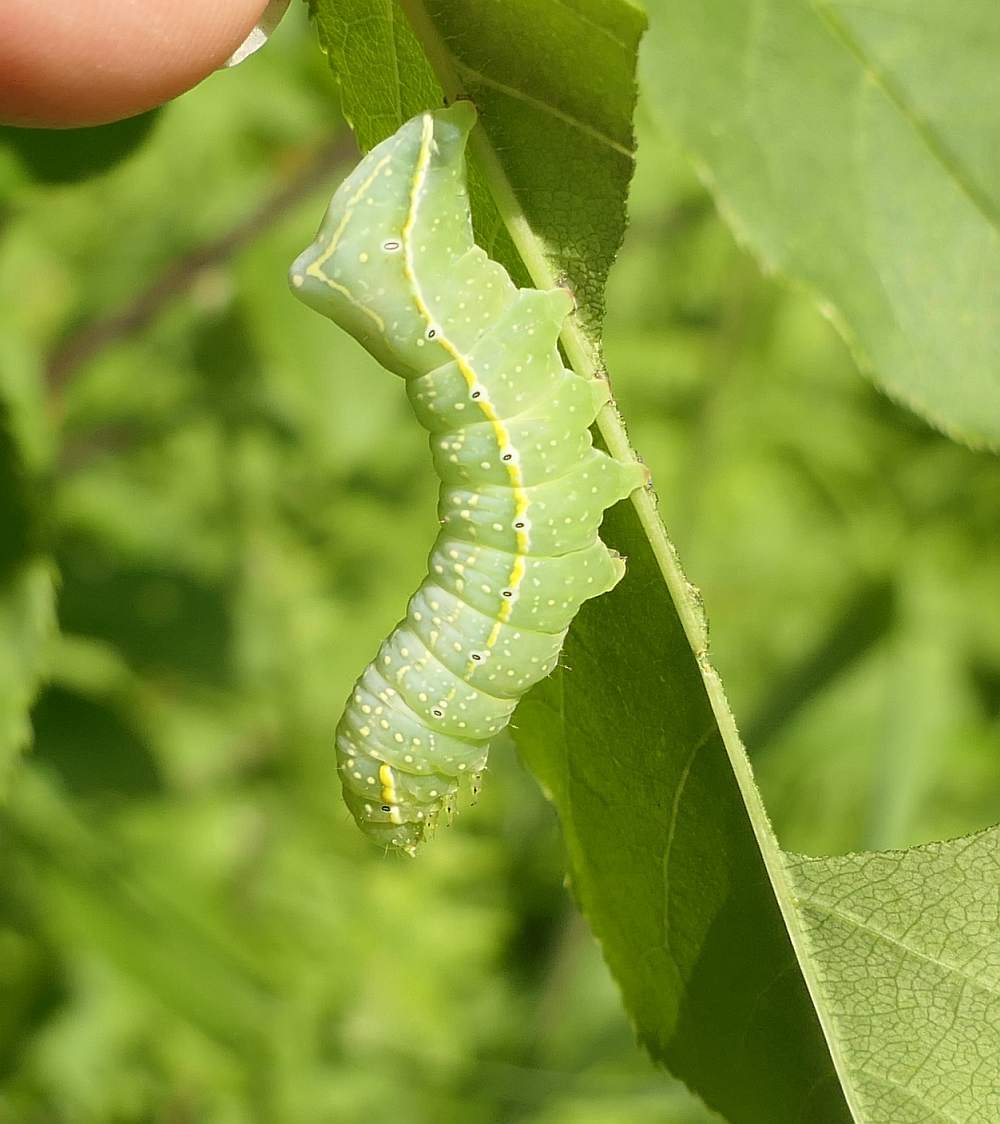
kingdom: Animalia
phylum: Arthropoda
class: Insecta
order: Lepidoptera
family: Noctuidae
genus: Amphipyra
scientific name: Amphipyra pyramidoides
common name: American copper underwing
